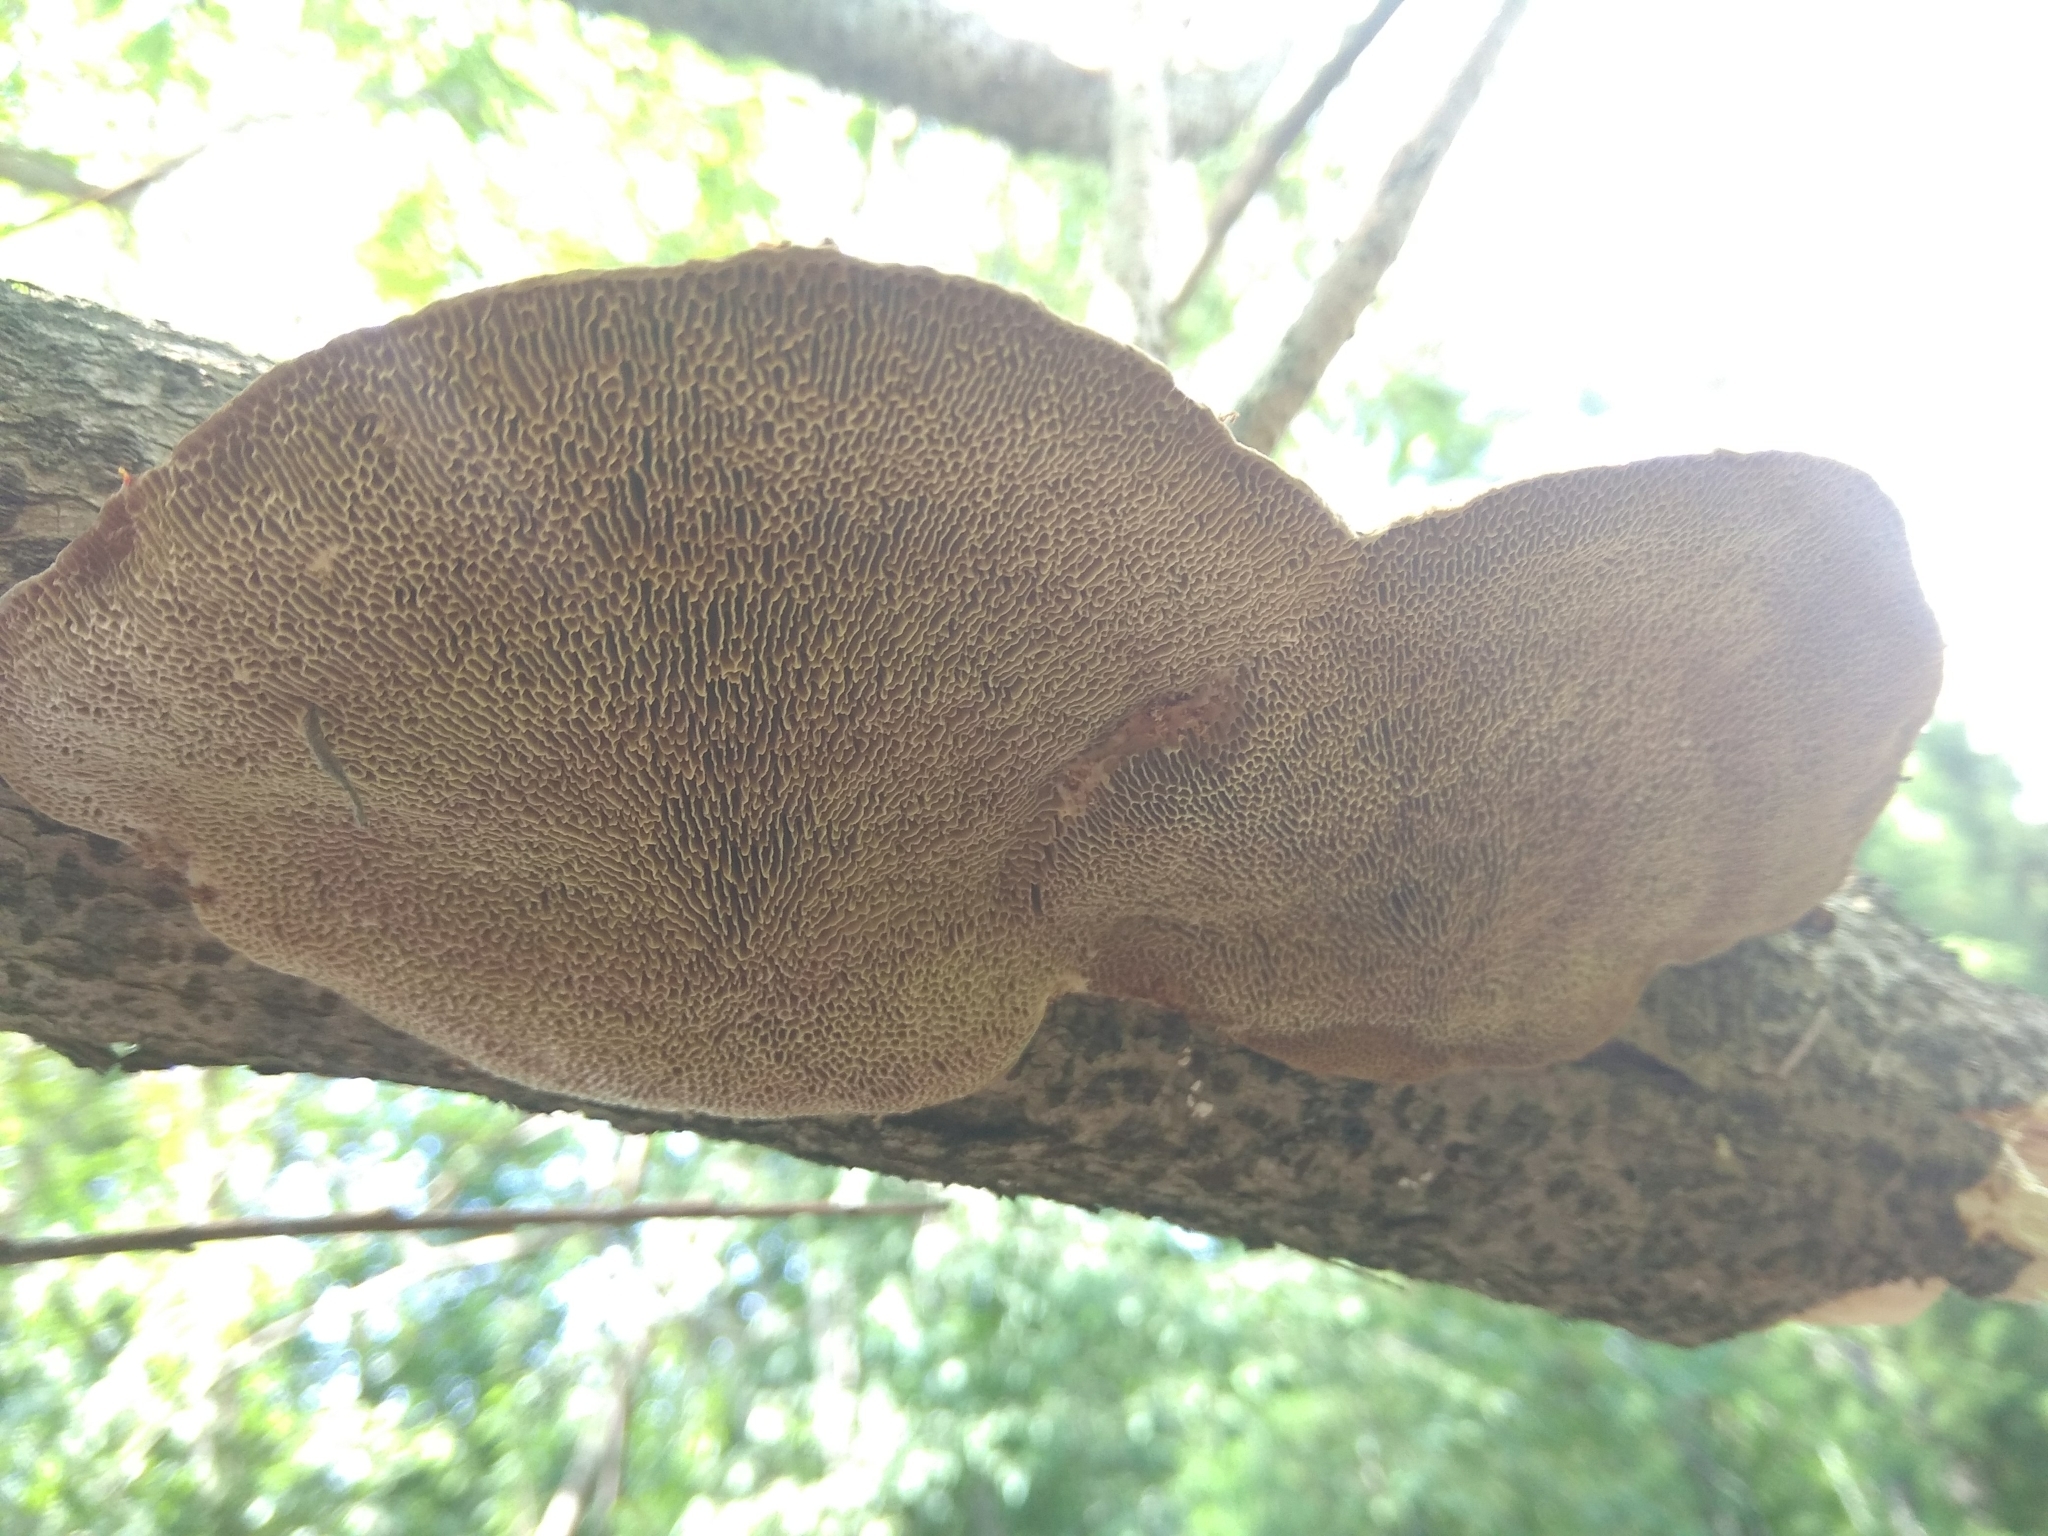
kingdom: Fungi
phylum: Basidiomycota
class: Agaricomycetes
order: Polyporales
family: Polyporaceae
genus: Daedaleopsis
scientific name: Daedaleopsis confragosa
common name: Blushing bracket
